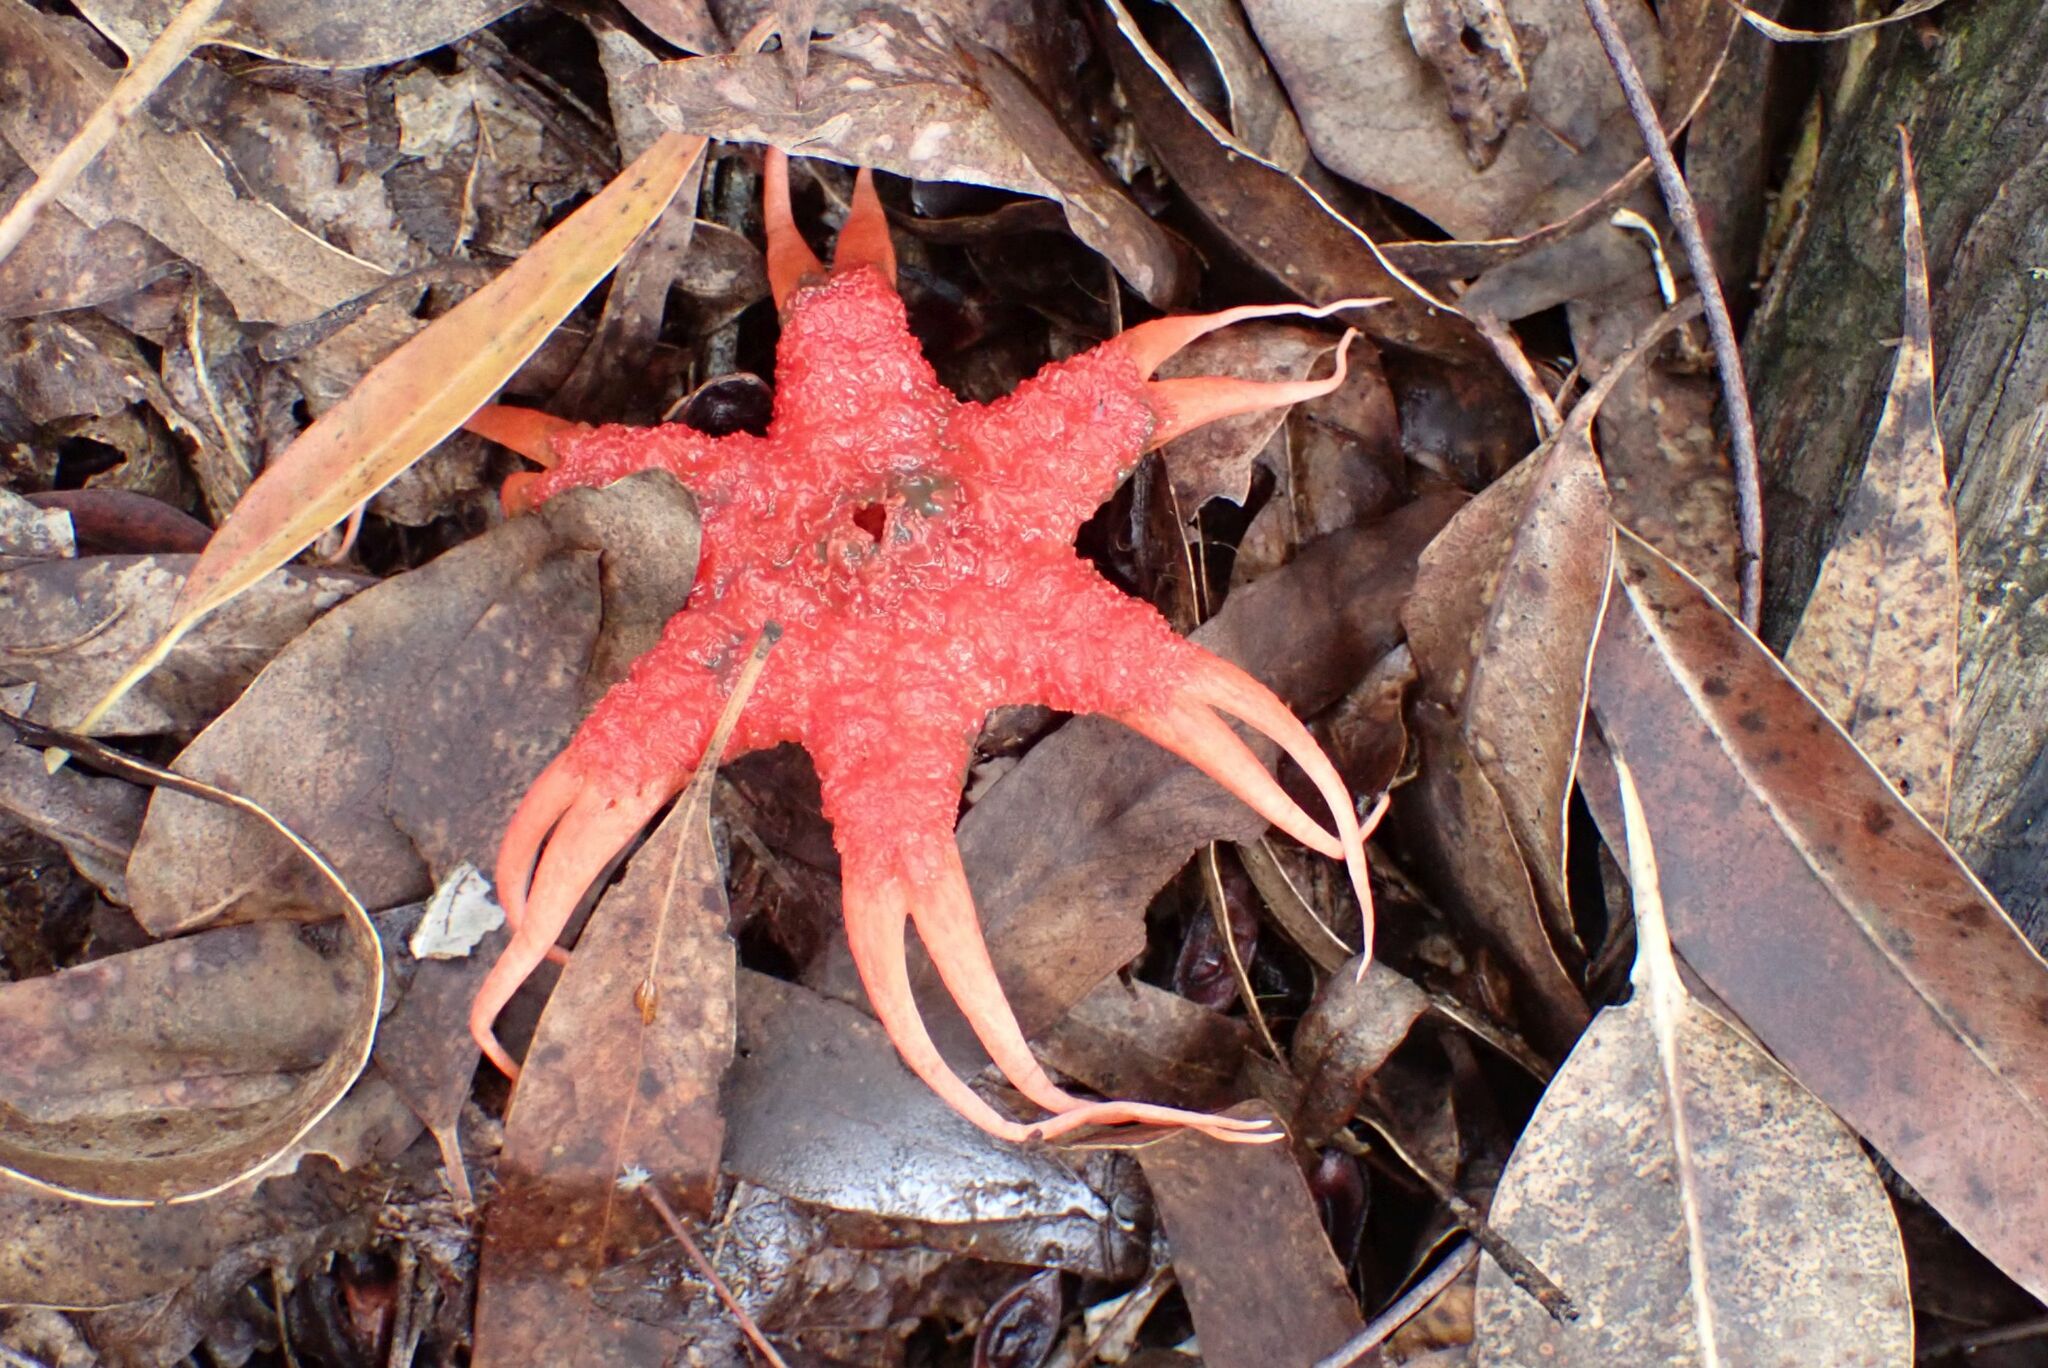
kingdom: Fungi
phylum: Basidiomycota
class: Agaricomycetes
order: Phallales
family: Phallaceae
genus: Aseroe
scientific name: Aseroe rubra
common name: Starfish fungus
